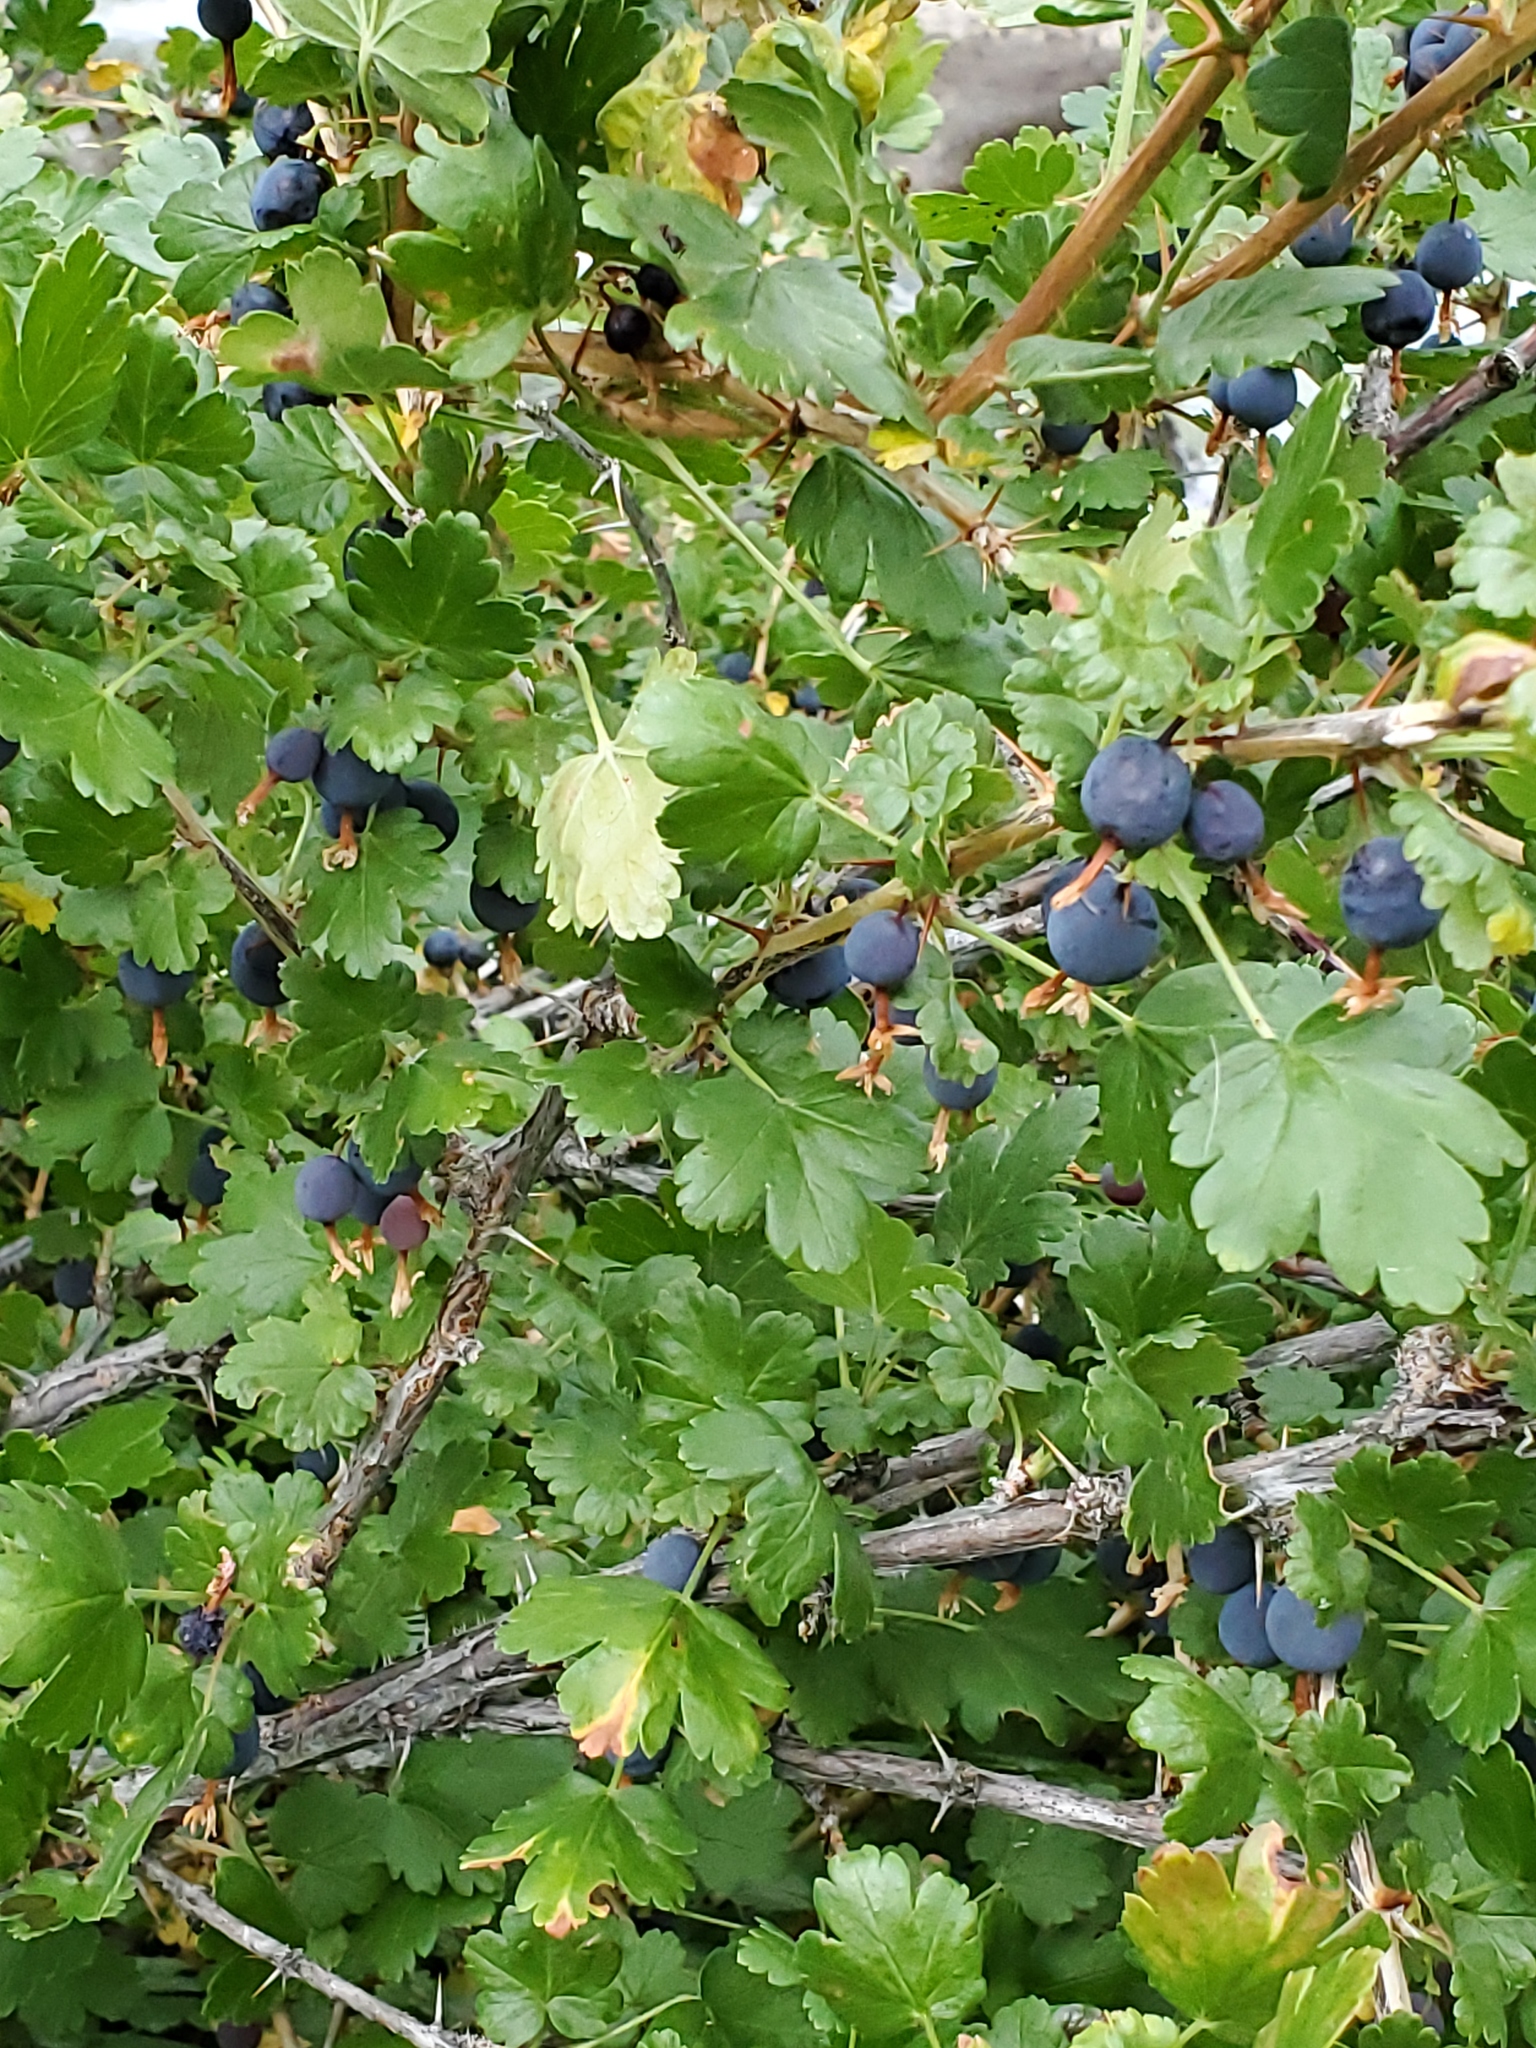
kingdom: Plantae
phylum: Tracheophyta
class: Magnoliopsida
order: Saxifragales
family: Grossulariaceae
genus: Ribes
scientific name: Ribes oxyacanthoides
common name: Northern gooseberry
